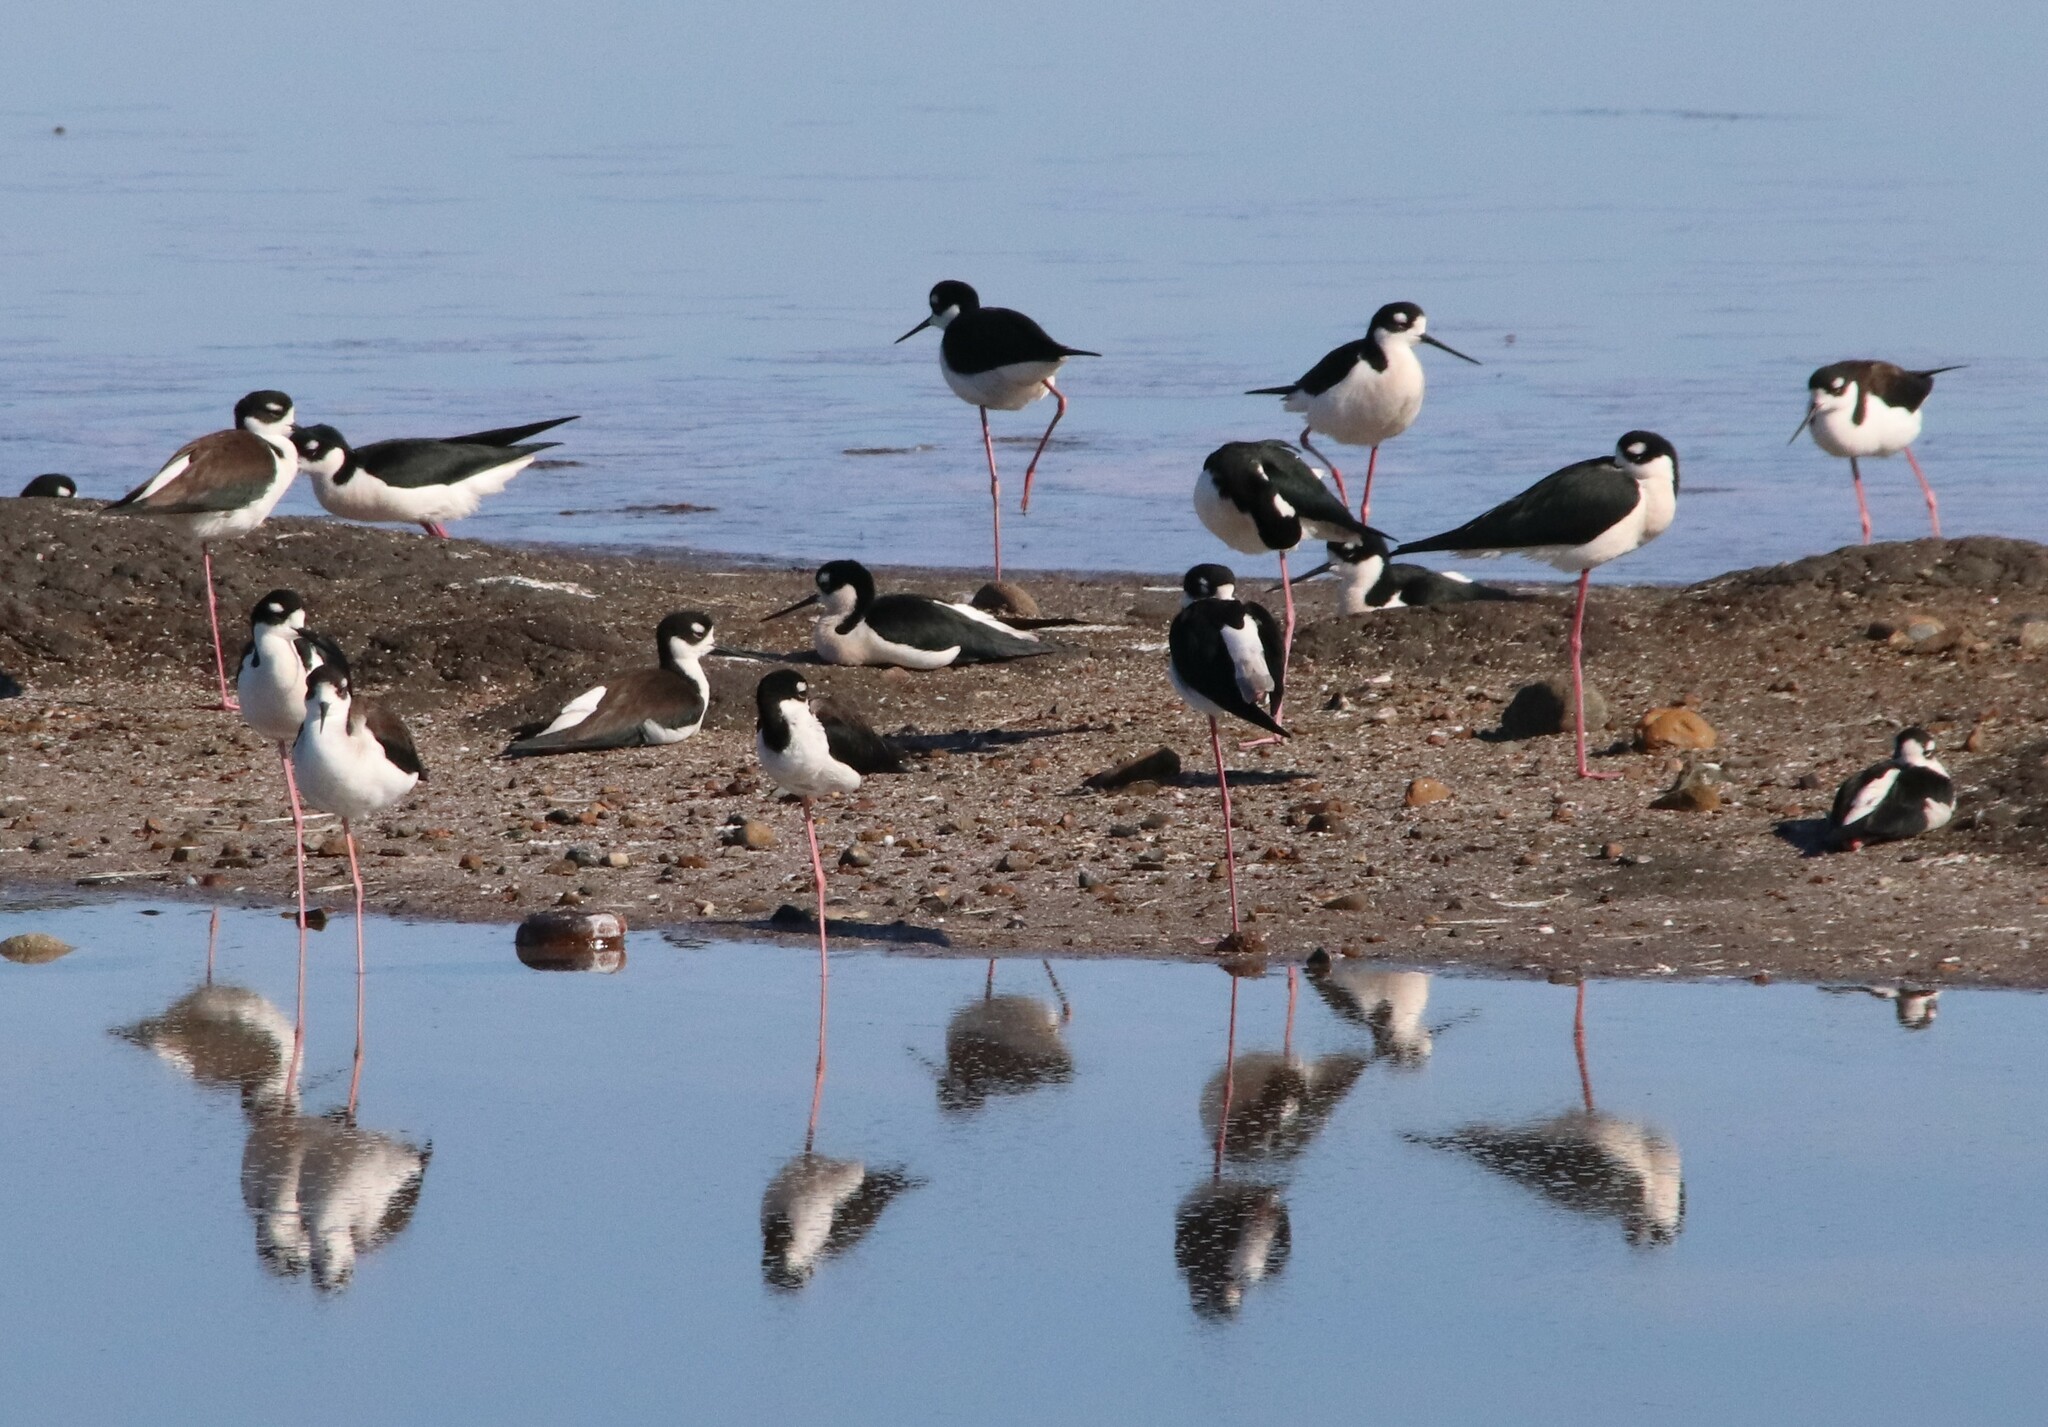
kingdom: Animalia
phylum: Chordata
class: Aves
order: Charadriiformes
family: Recurvirostridae
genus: Himantopus
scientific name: Himantopus mexicanus
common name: Black-necked stilt
